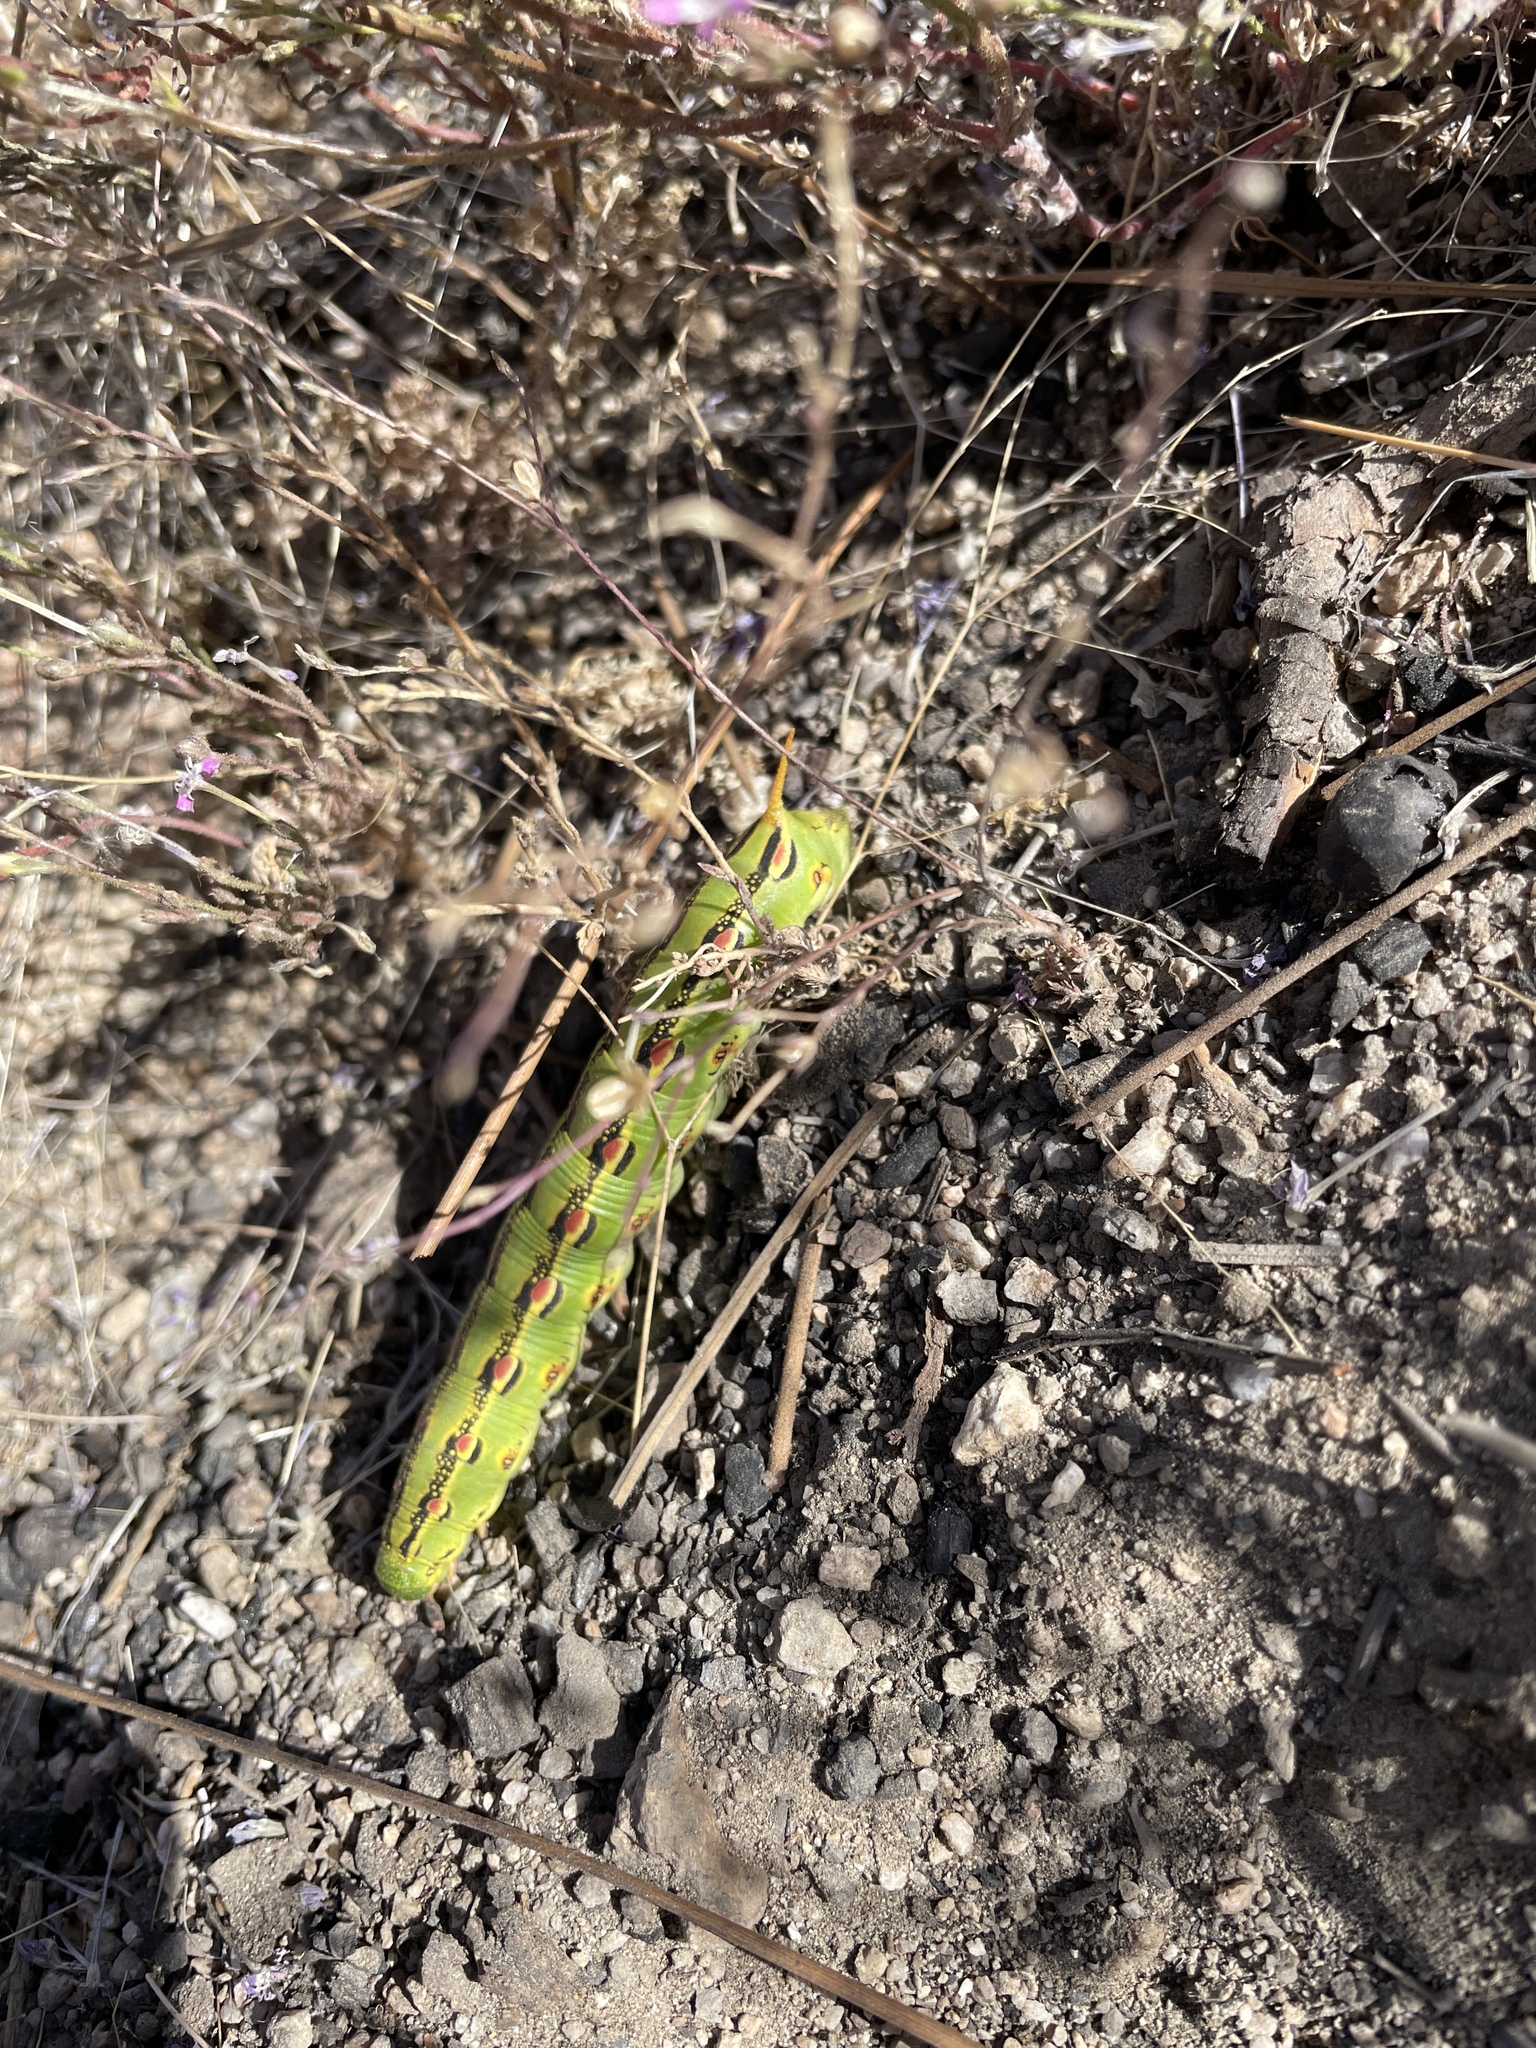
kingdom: Animalia
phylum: Arthropoda
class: Insecta
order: Lepidoptera
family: Sphingidae
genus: Hyles
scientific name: Hyles lineata
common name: White-lined sphinx
